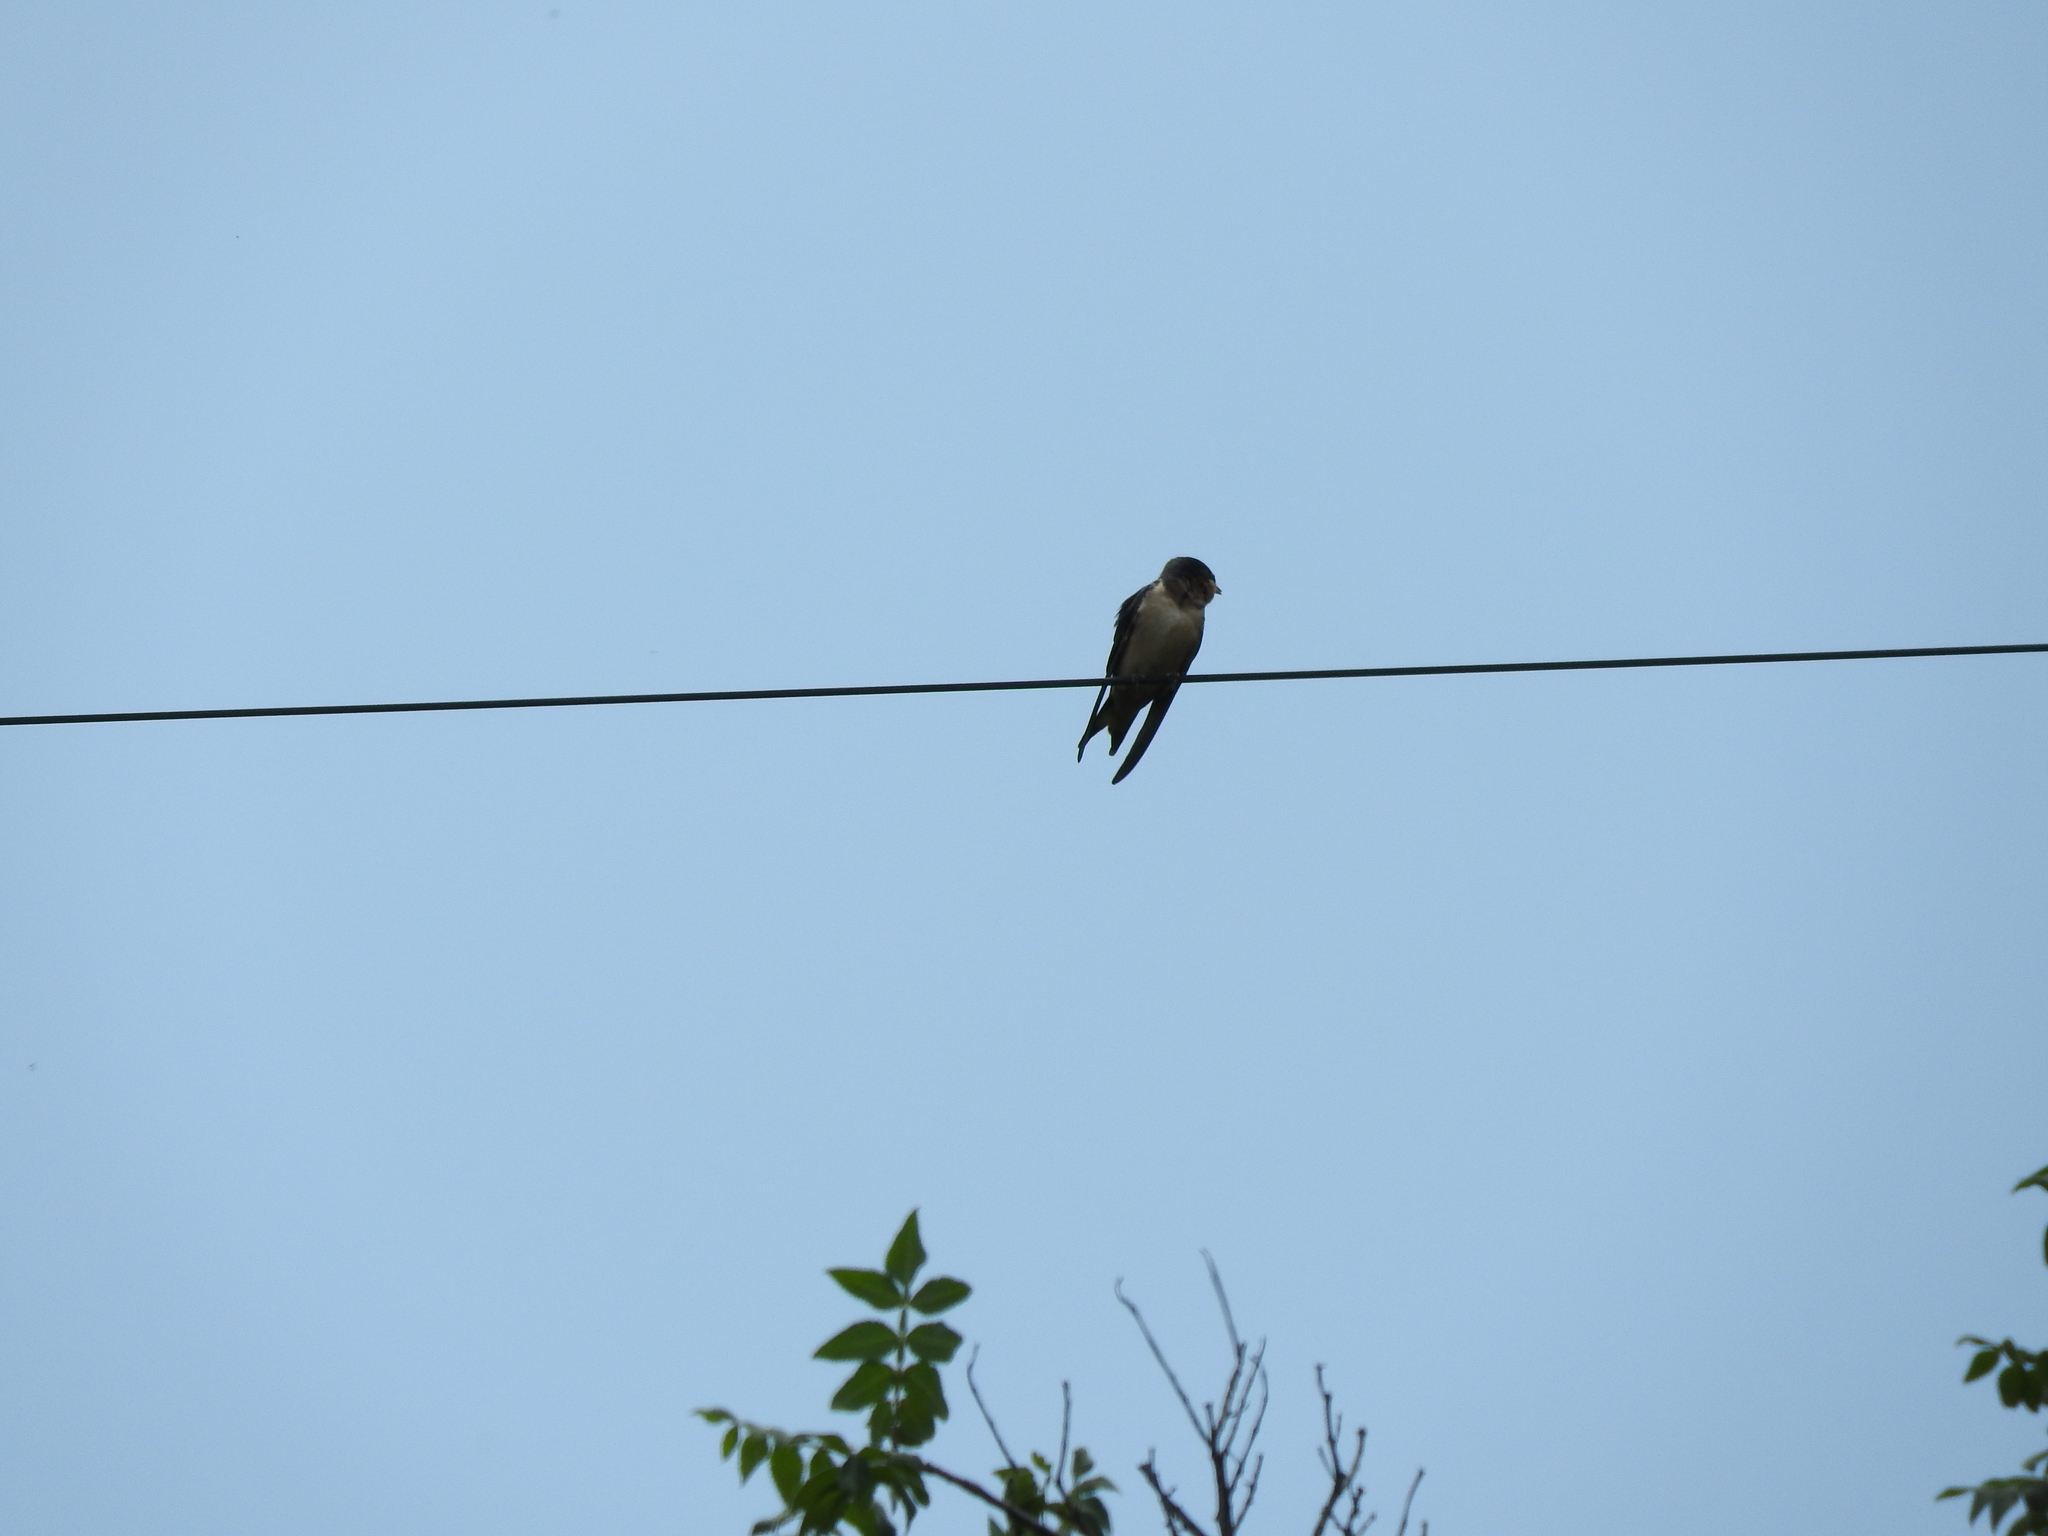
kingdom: Animalia
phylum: Chordata
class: Aves
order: Passeriformes
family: Hirundinidae
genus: Hirundo
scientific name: Hirundo rustica
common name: Barn swallow
